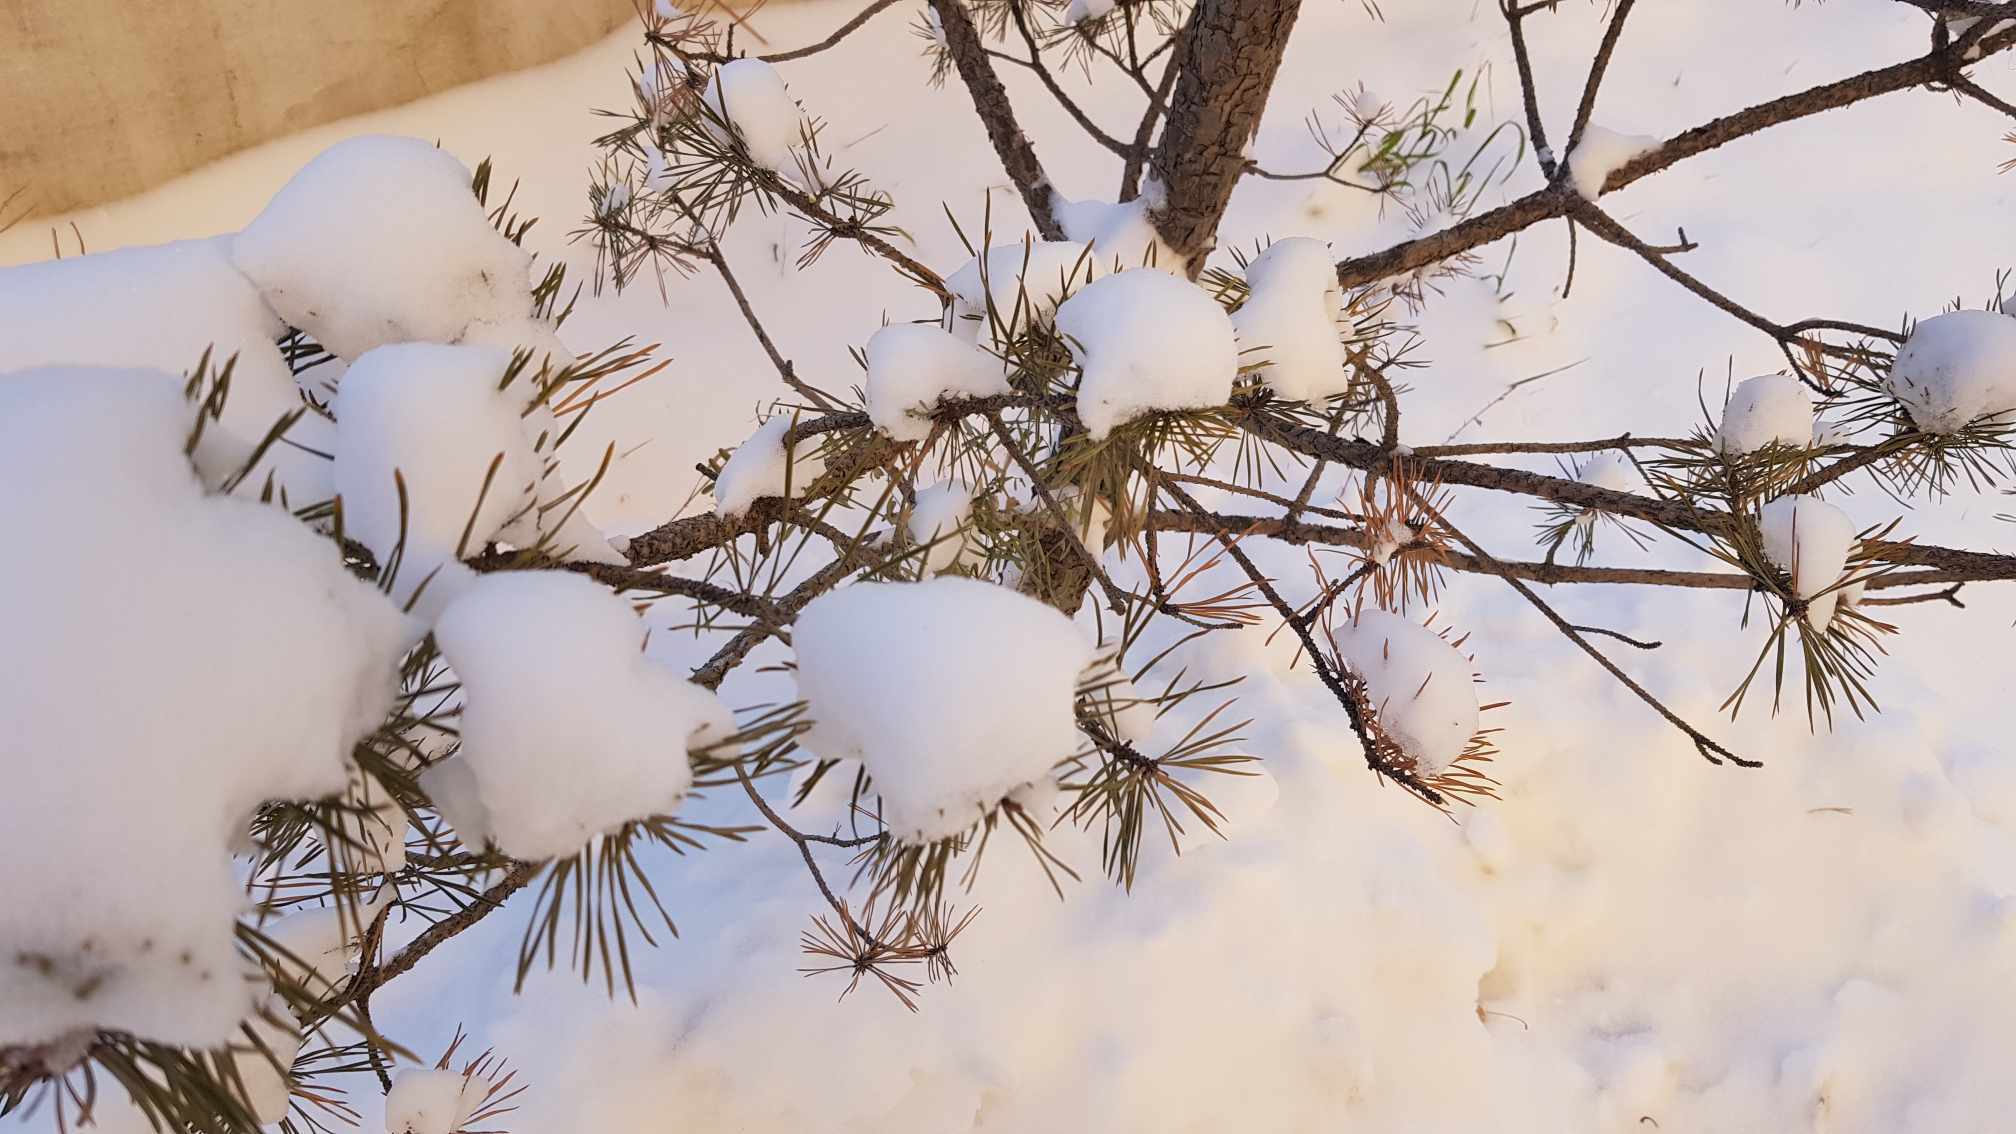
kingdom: Plantae
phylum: Tracheophyta
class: Pinopsida
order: Pinales
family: Pinaceae
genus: Pinus
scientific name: Pinus sylvestris
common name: Scots pine
